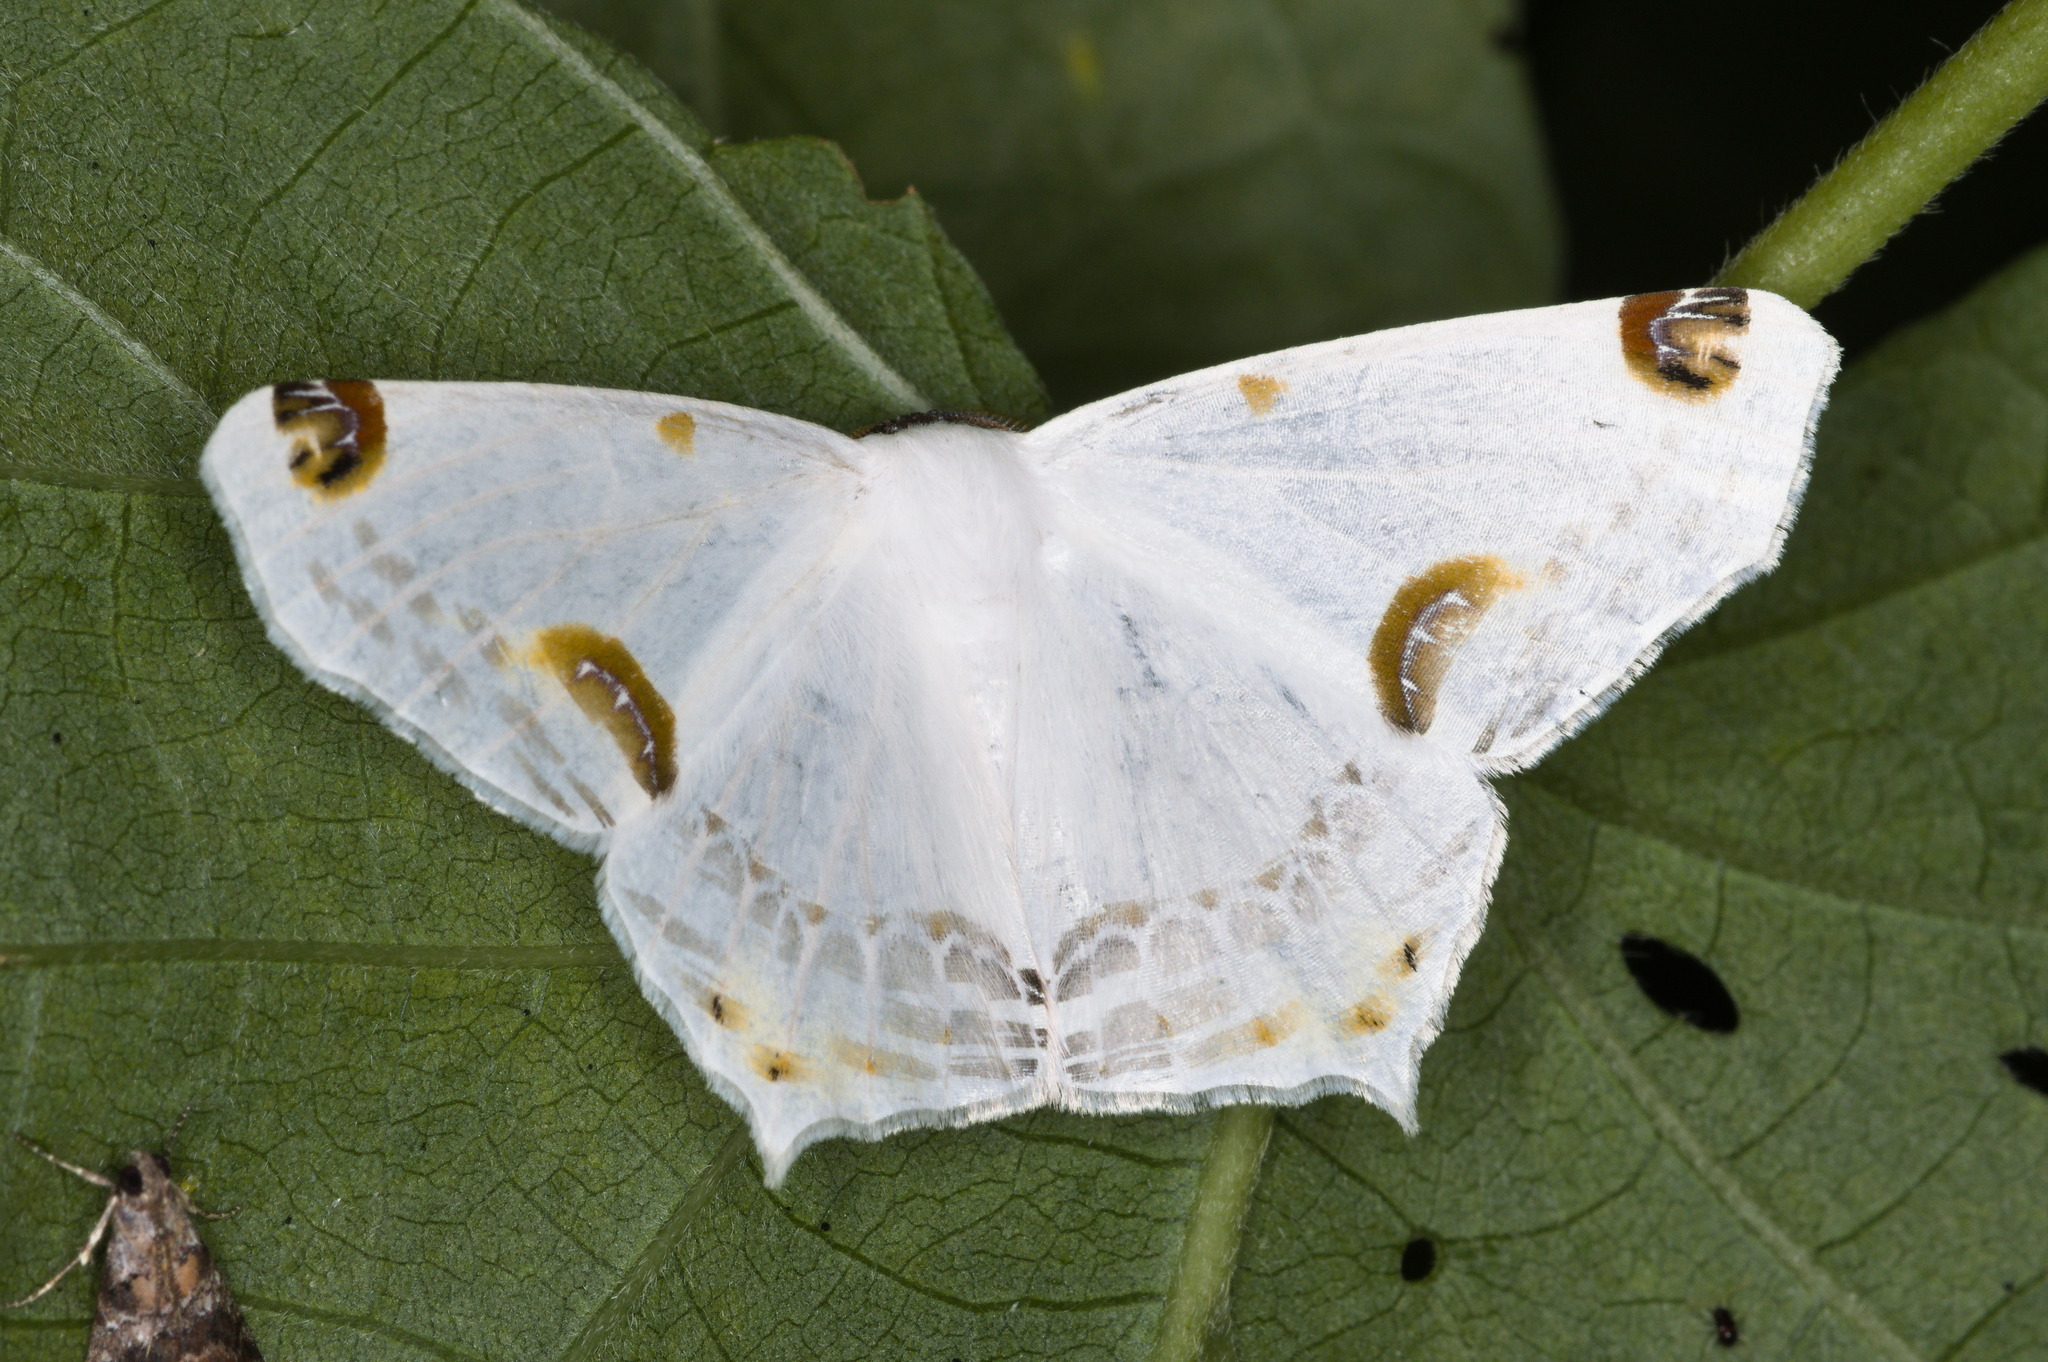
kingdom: Animalia
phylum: Arthropoda
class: Insecta
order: Lepidoptera
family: Geometridae
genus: Sericoptera
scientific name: Sericoptera mahometaria
